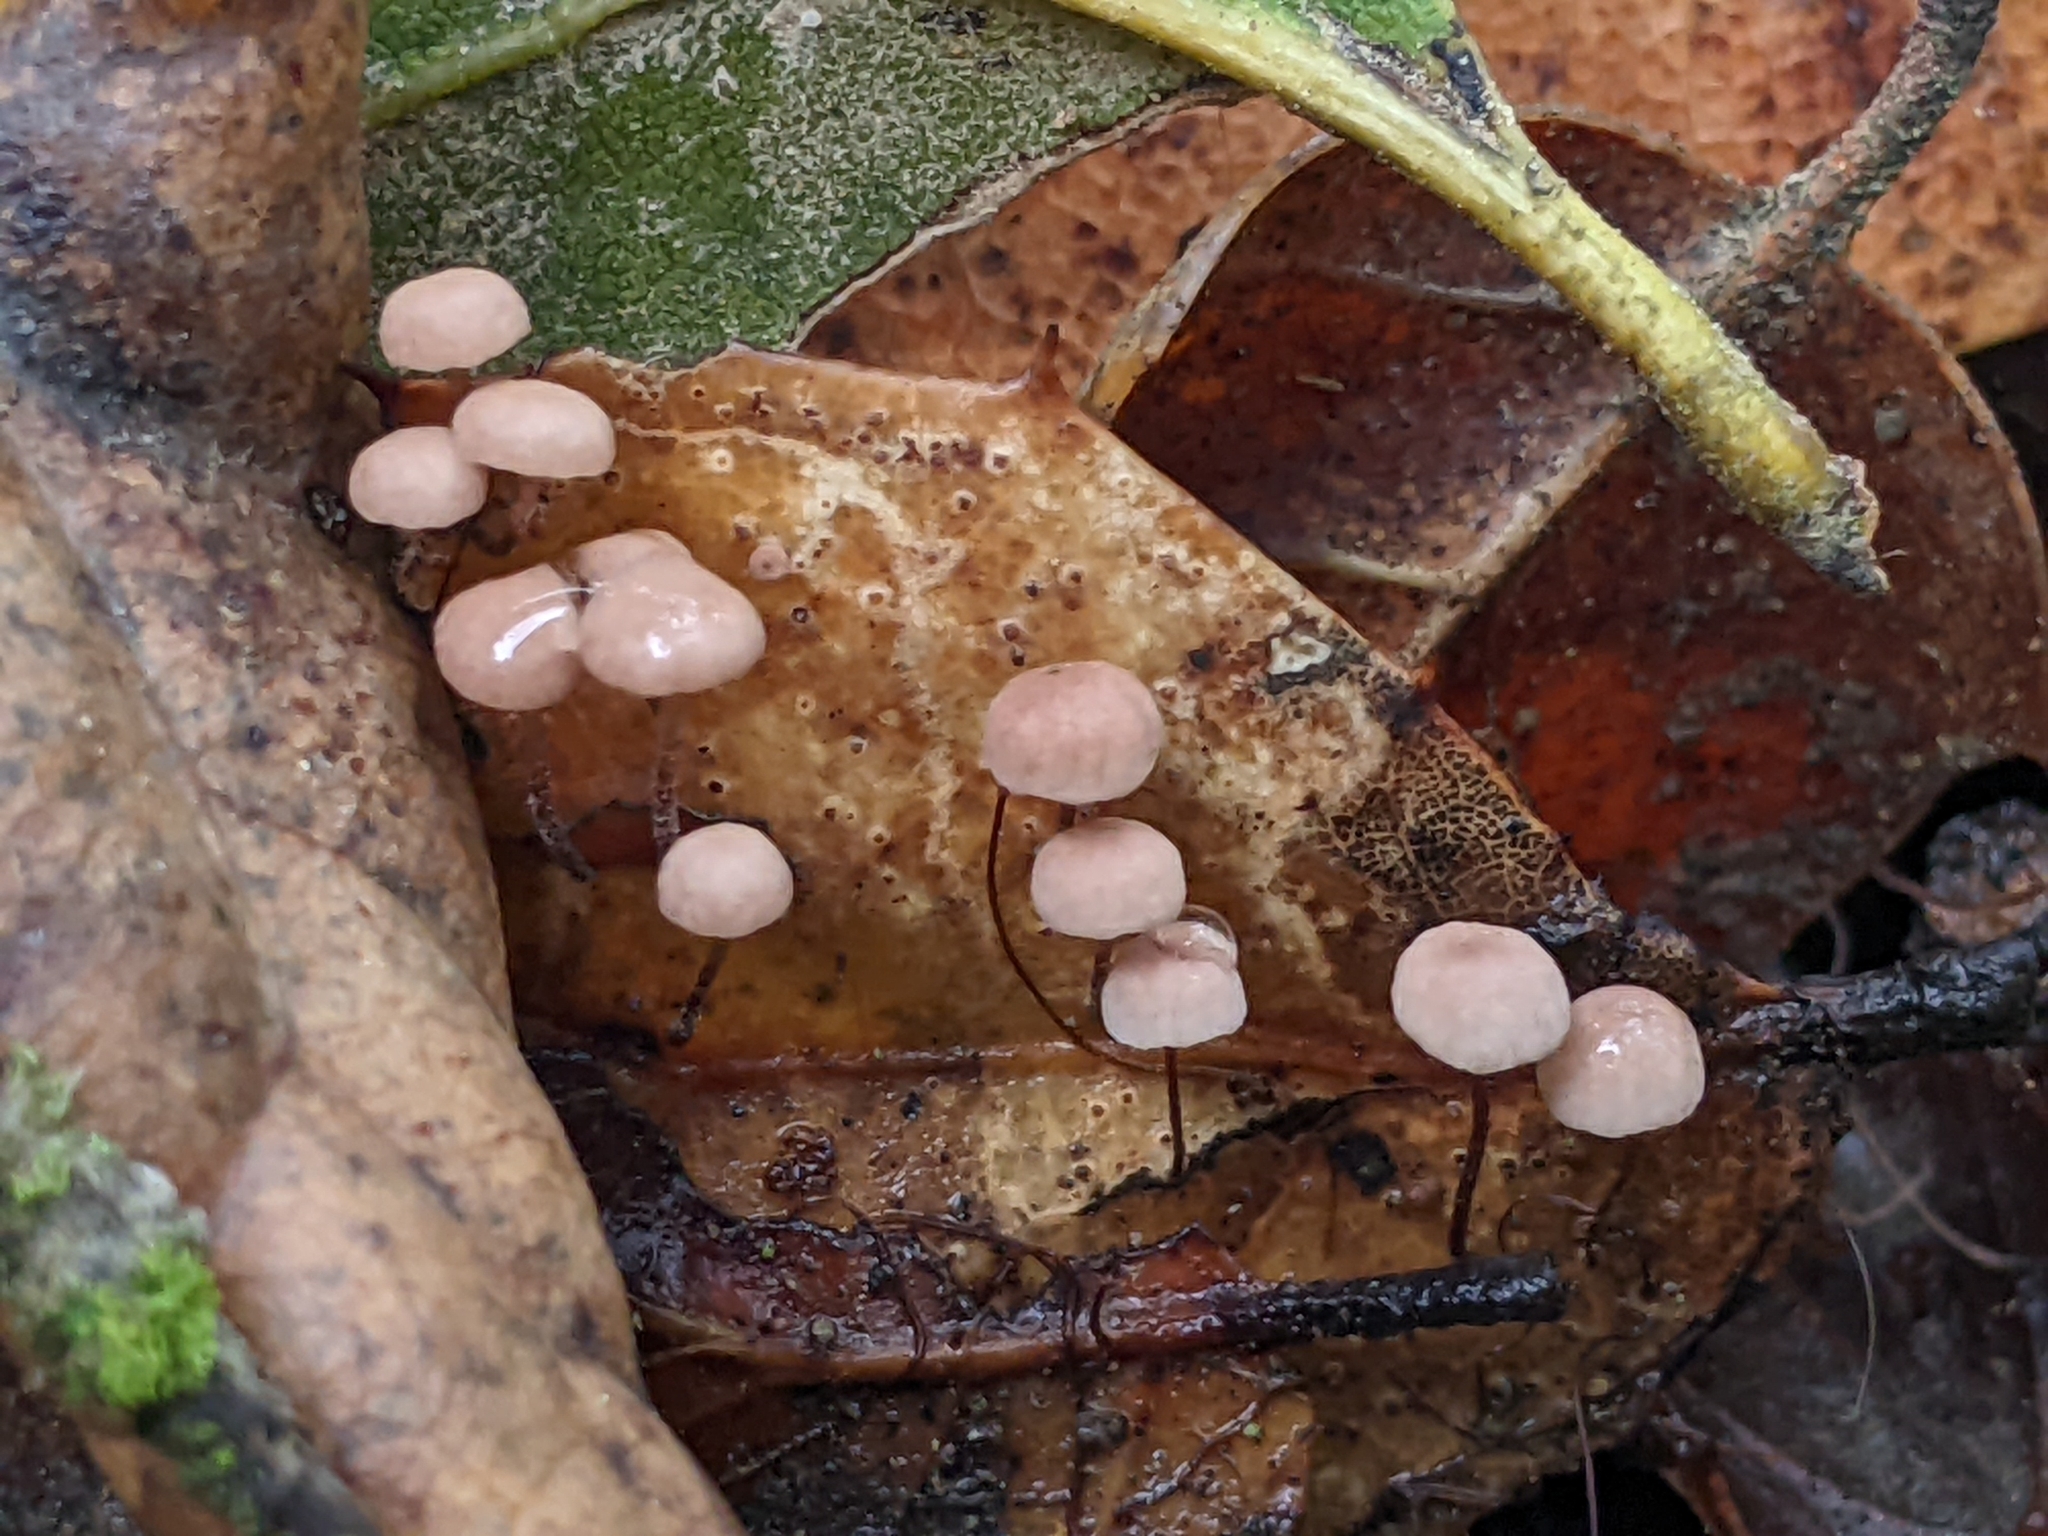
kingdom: Fungi
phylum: Basidiomycota
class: Agaricomycetes
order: Agaricales
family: Omphalotaceae
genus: Collybiopsis
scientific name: Collybiopsis quercophila
